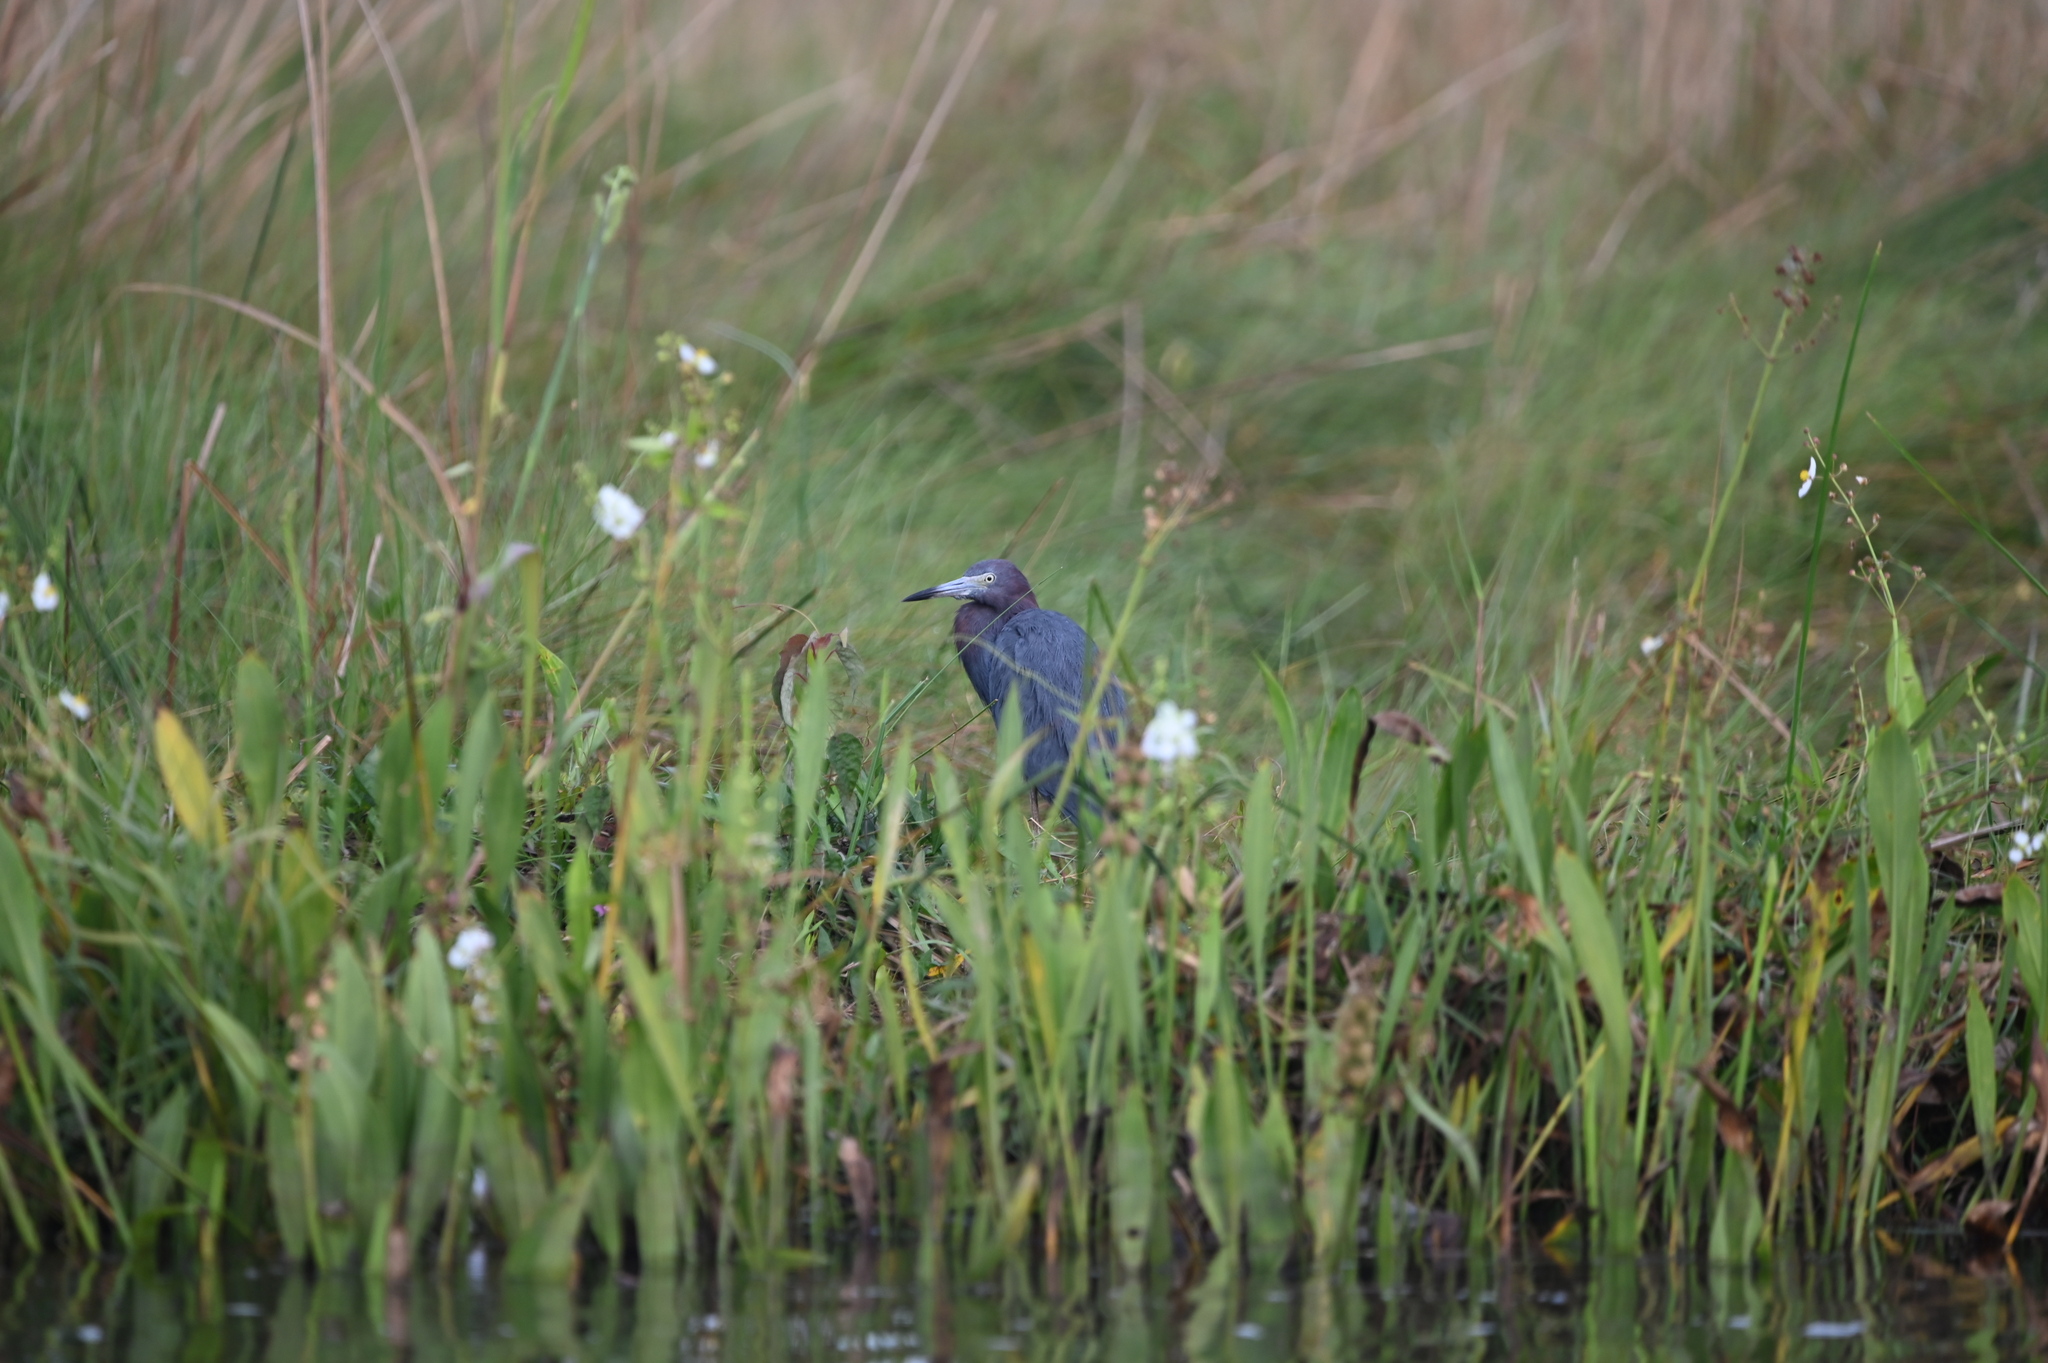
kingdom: Animalia
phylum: Chordata
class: Aves
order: Pelecaniformes
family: Ardeidae
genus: Egretta
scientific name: Egretta caerulea
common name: Little blue heron
